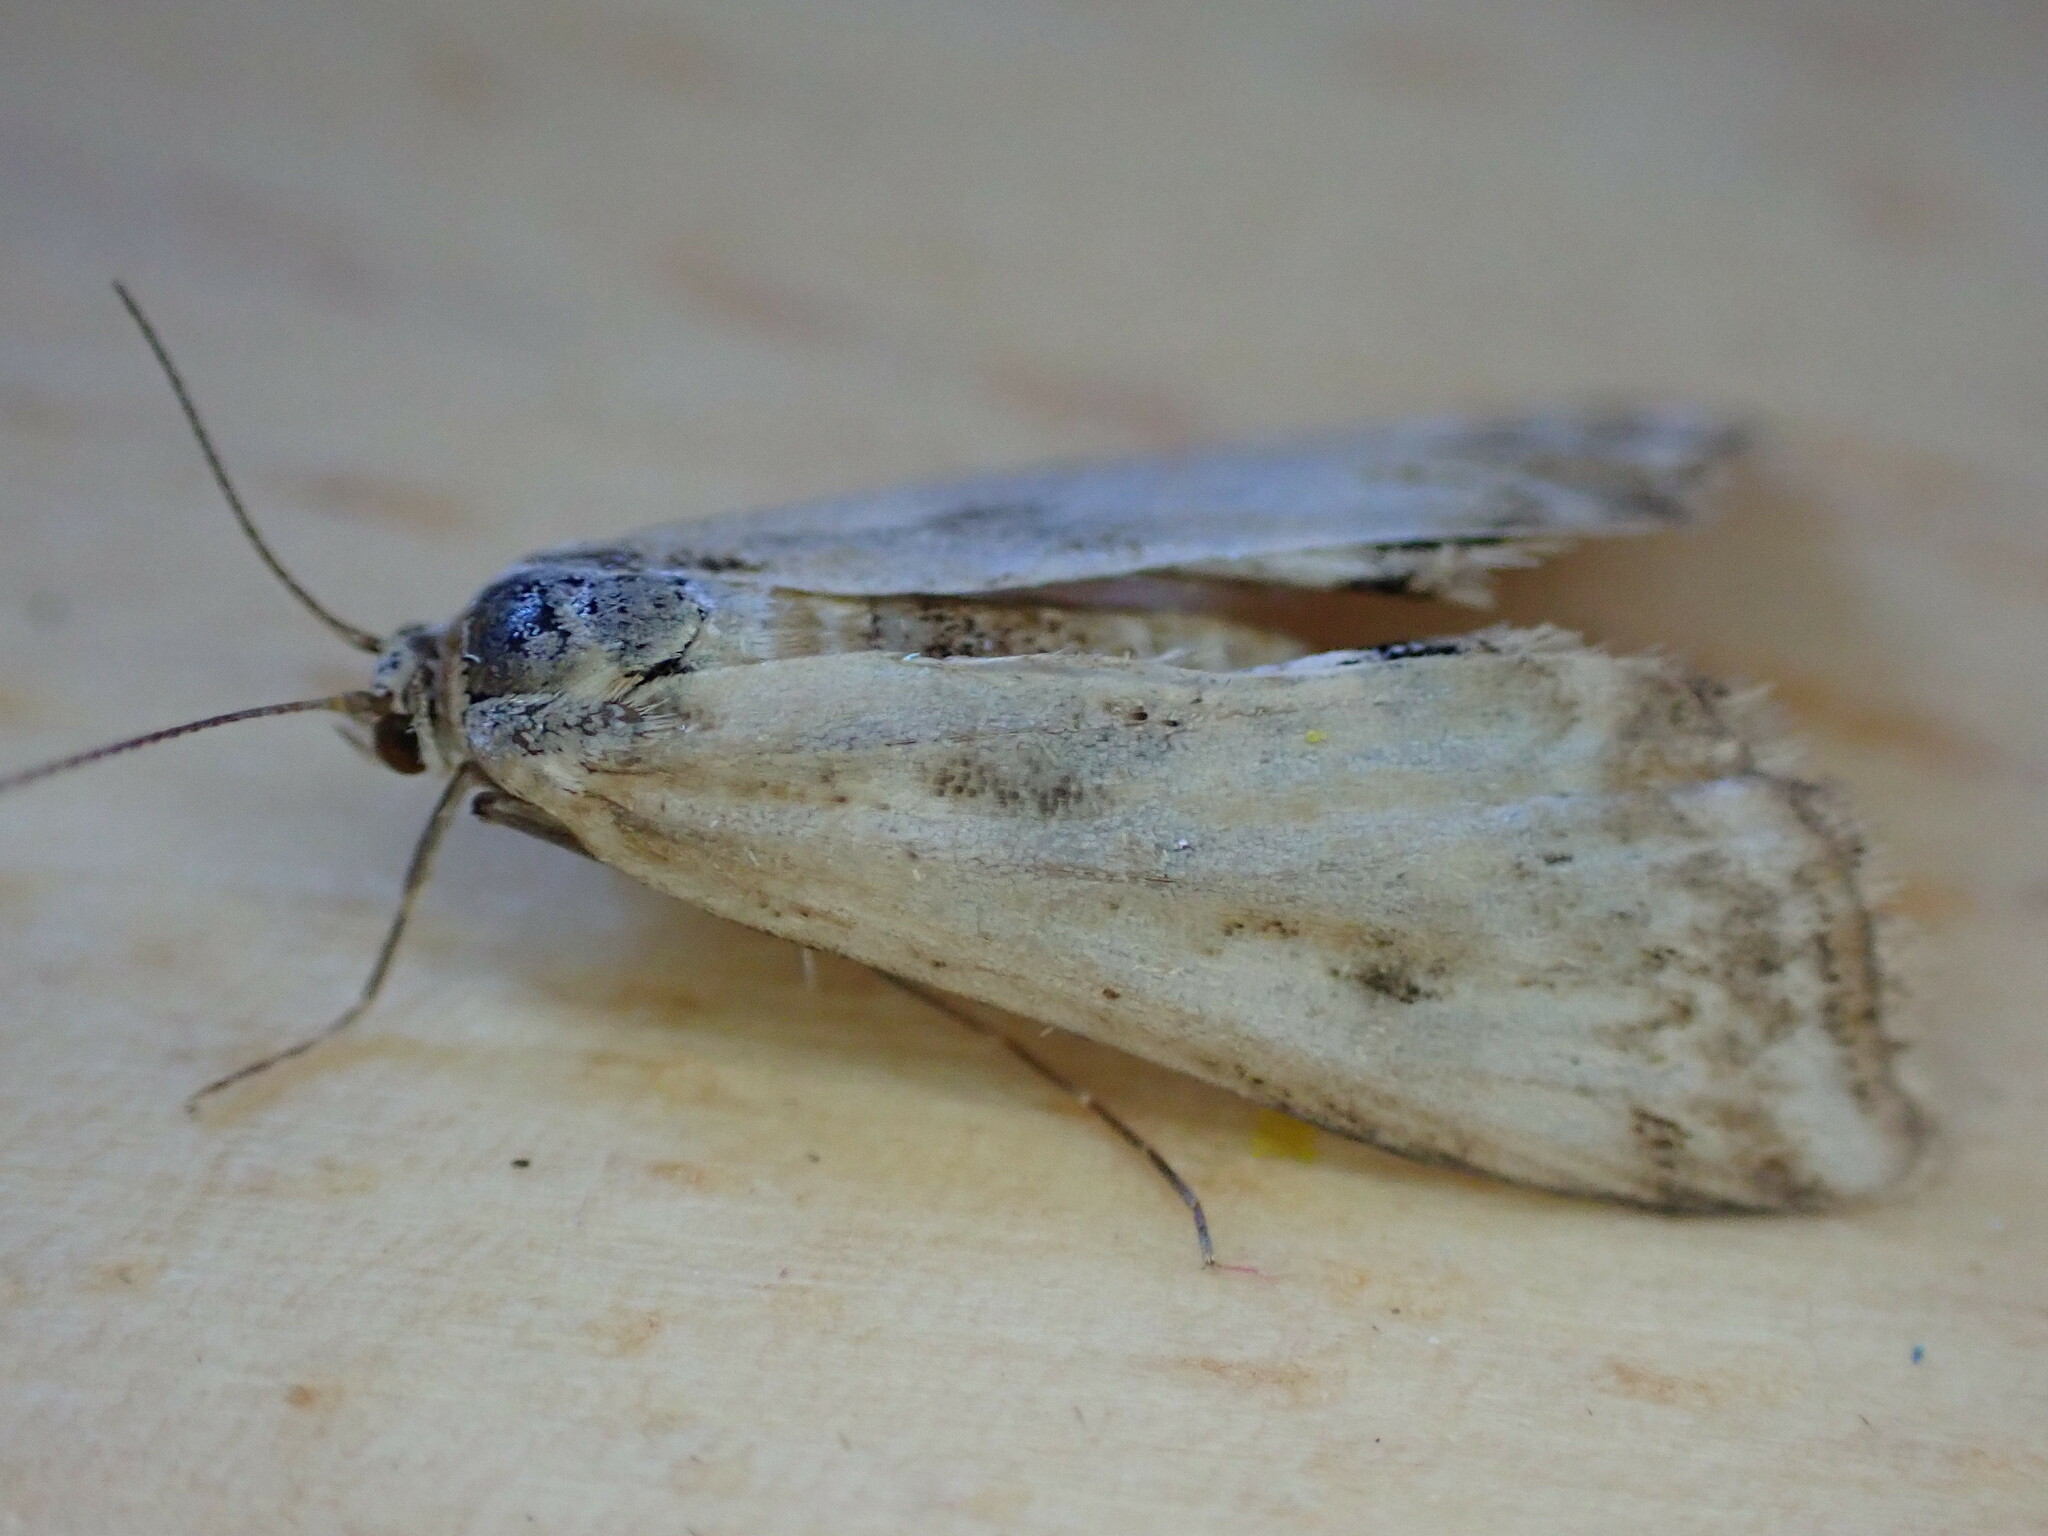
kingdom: Animalia
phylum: Arthropoda
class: Insecta
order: Lepidoptera
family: Crambidae
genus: Cataclysta
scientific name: Cataclysta lemnata
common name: Small china-mark
